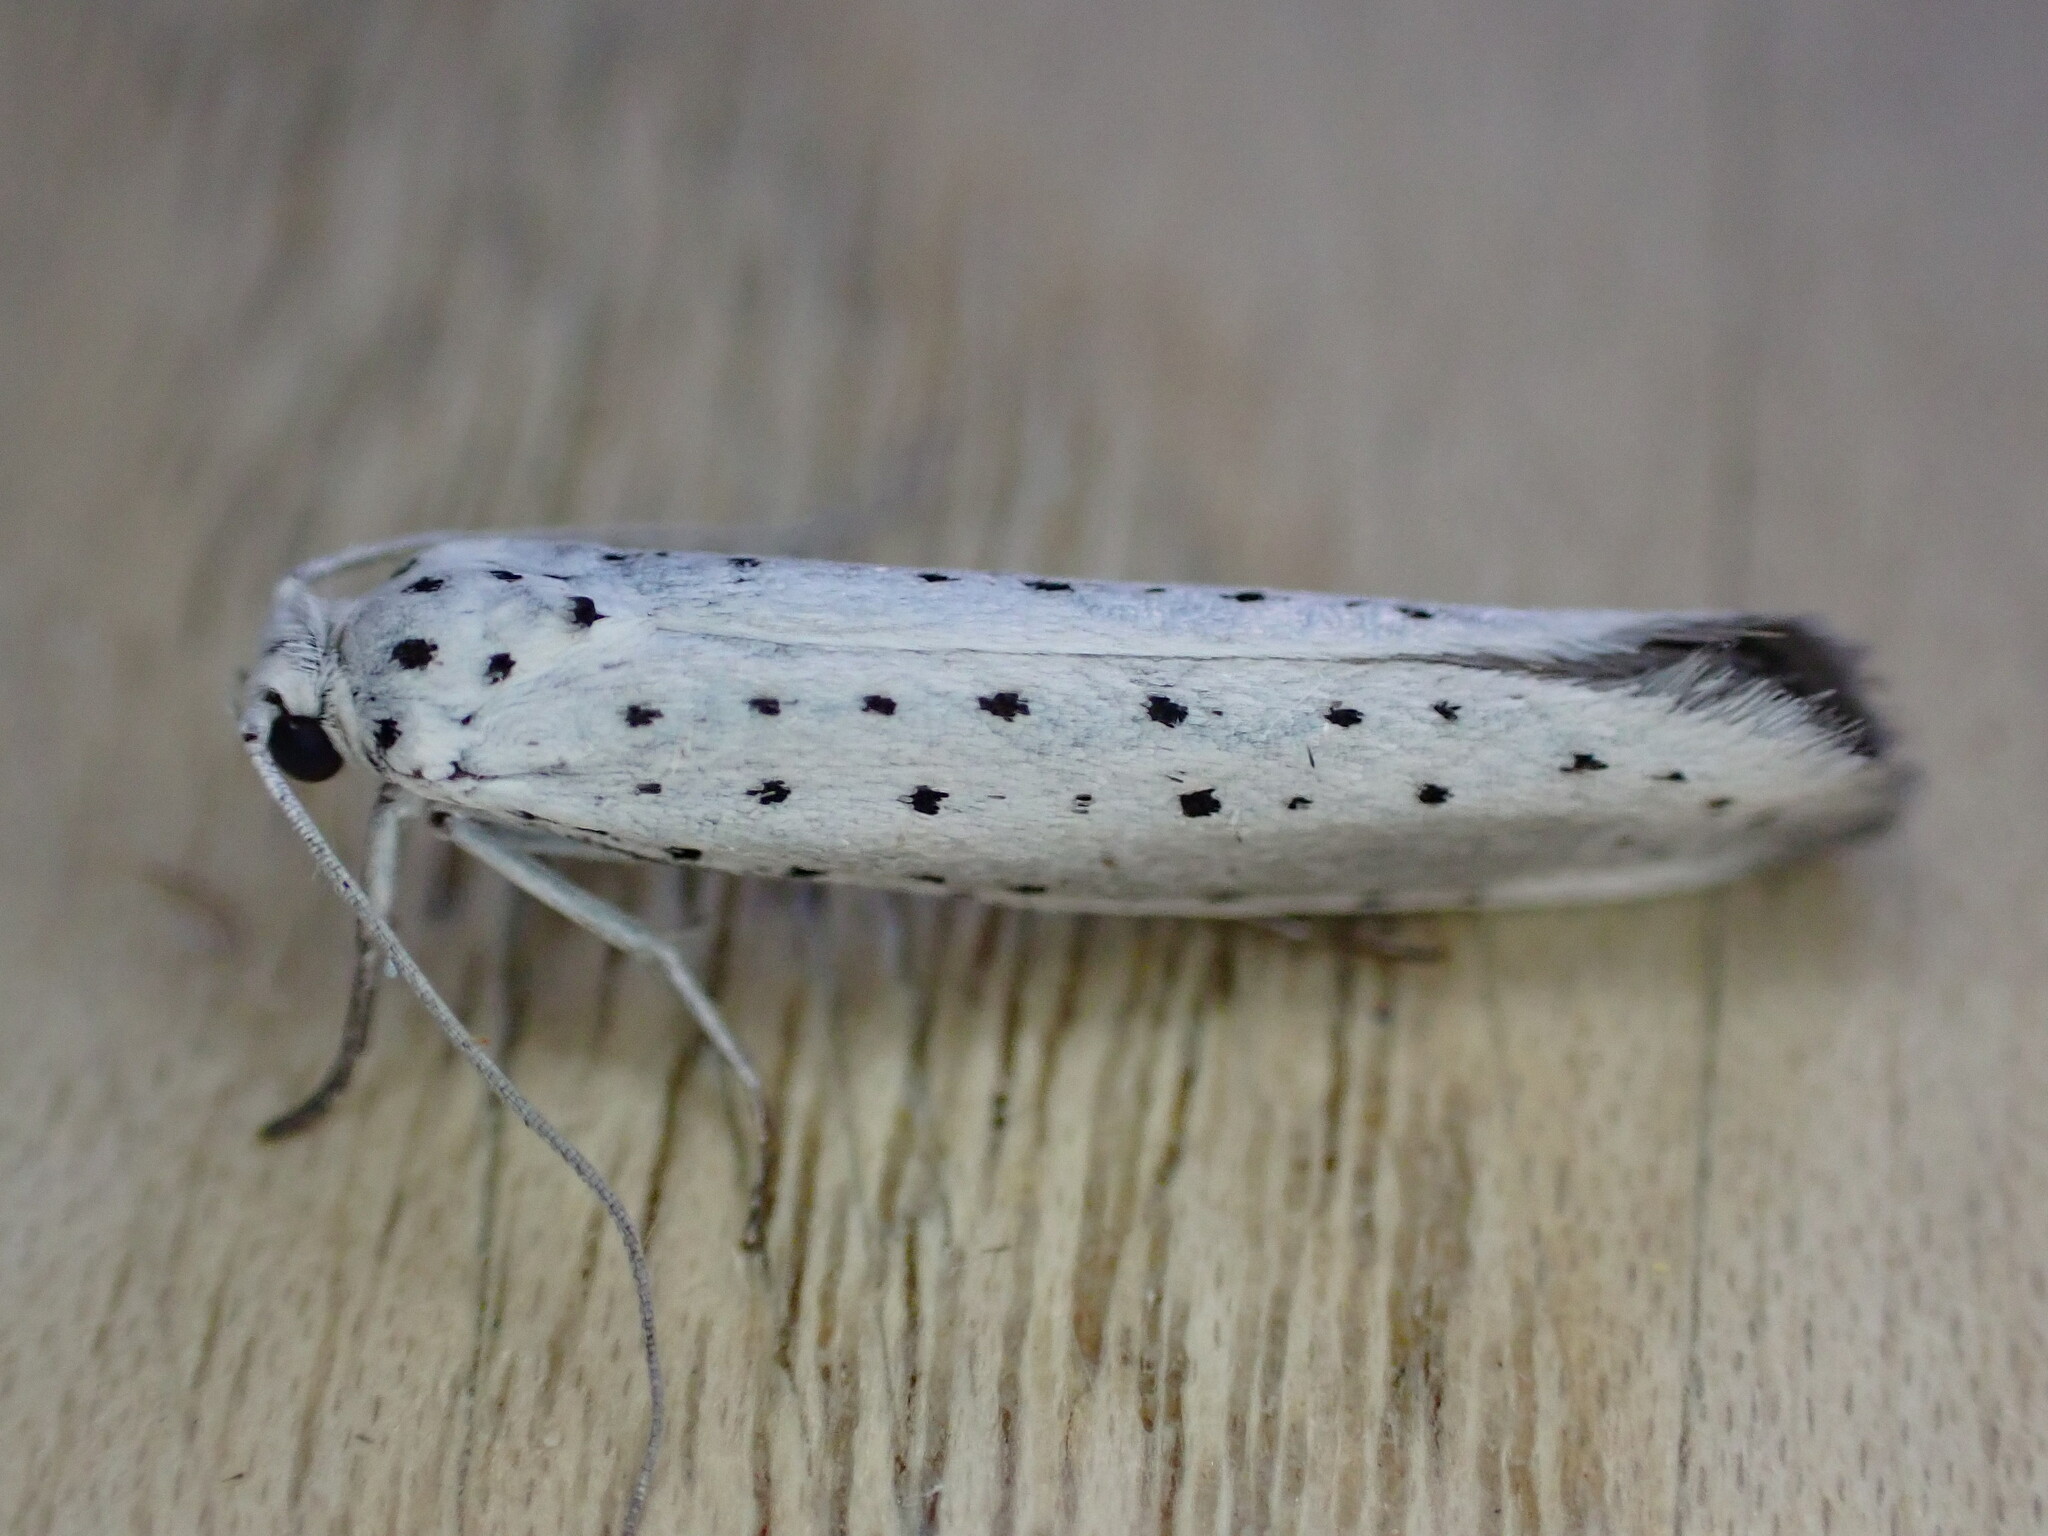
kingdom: Animalia
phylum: Arthropoda
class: Insecta
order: Lepidoptera
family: Yponomeutidae
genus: Yponomeuta
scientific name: Yponomeuta evonymella
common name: Bird-cherry ermine
